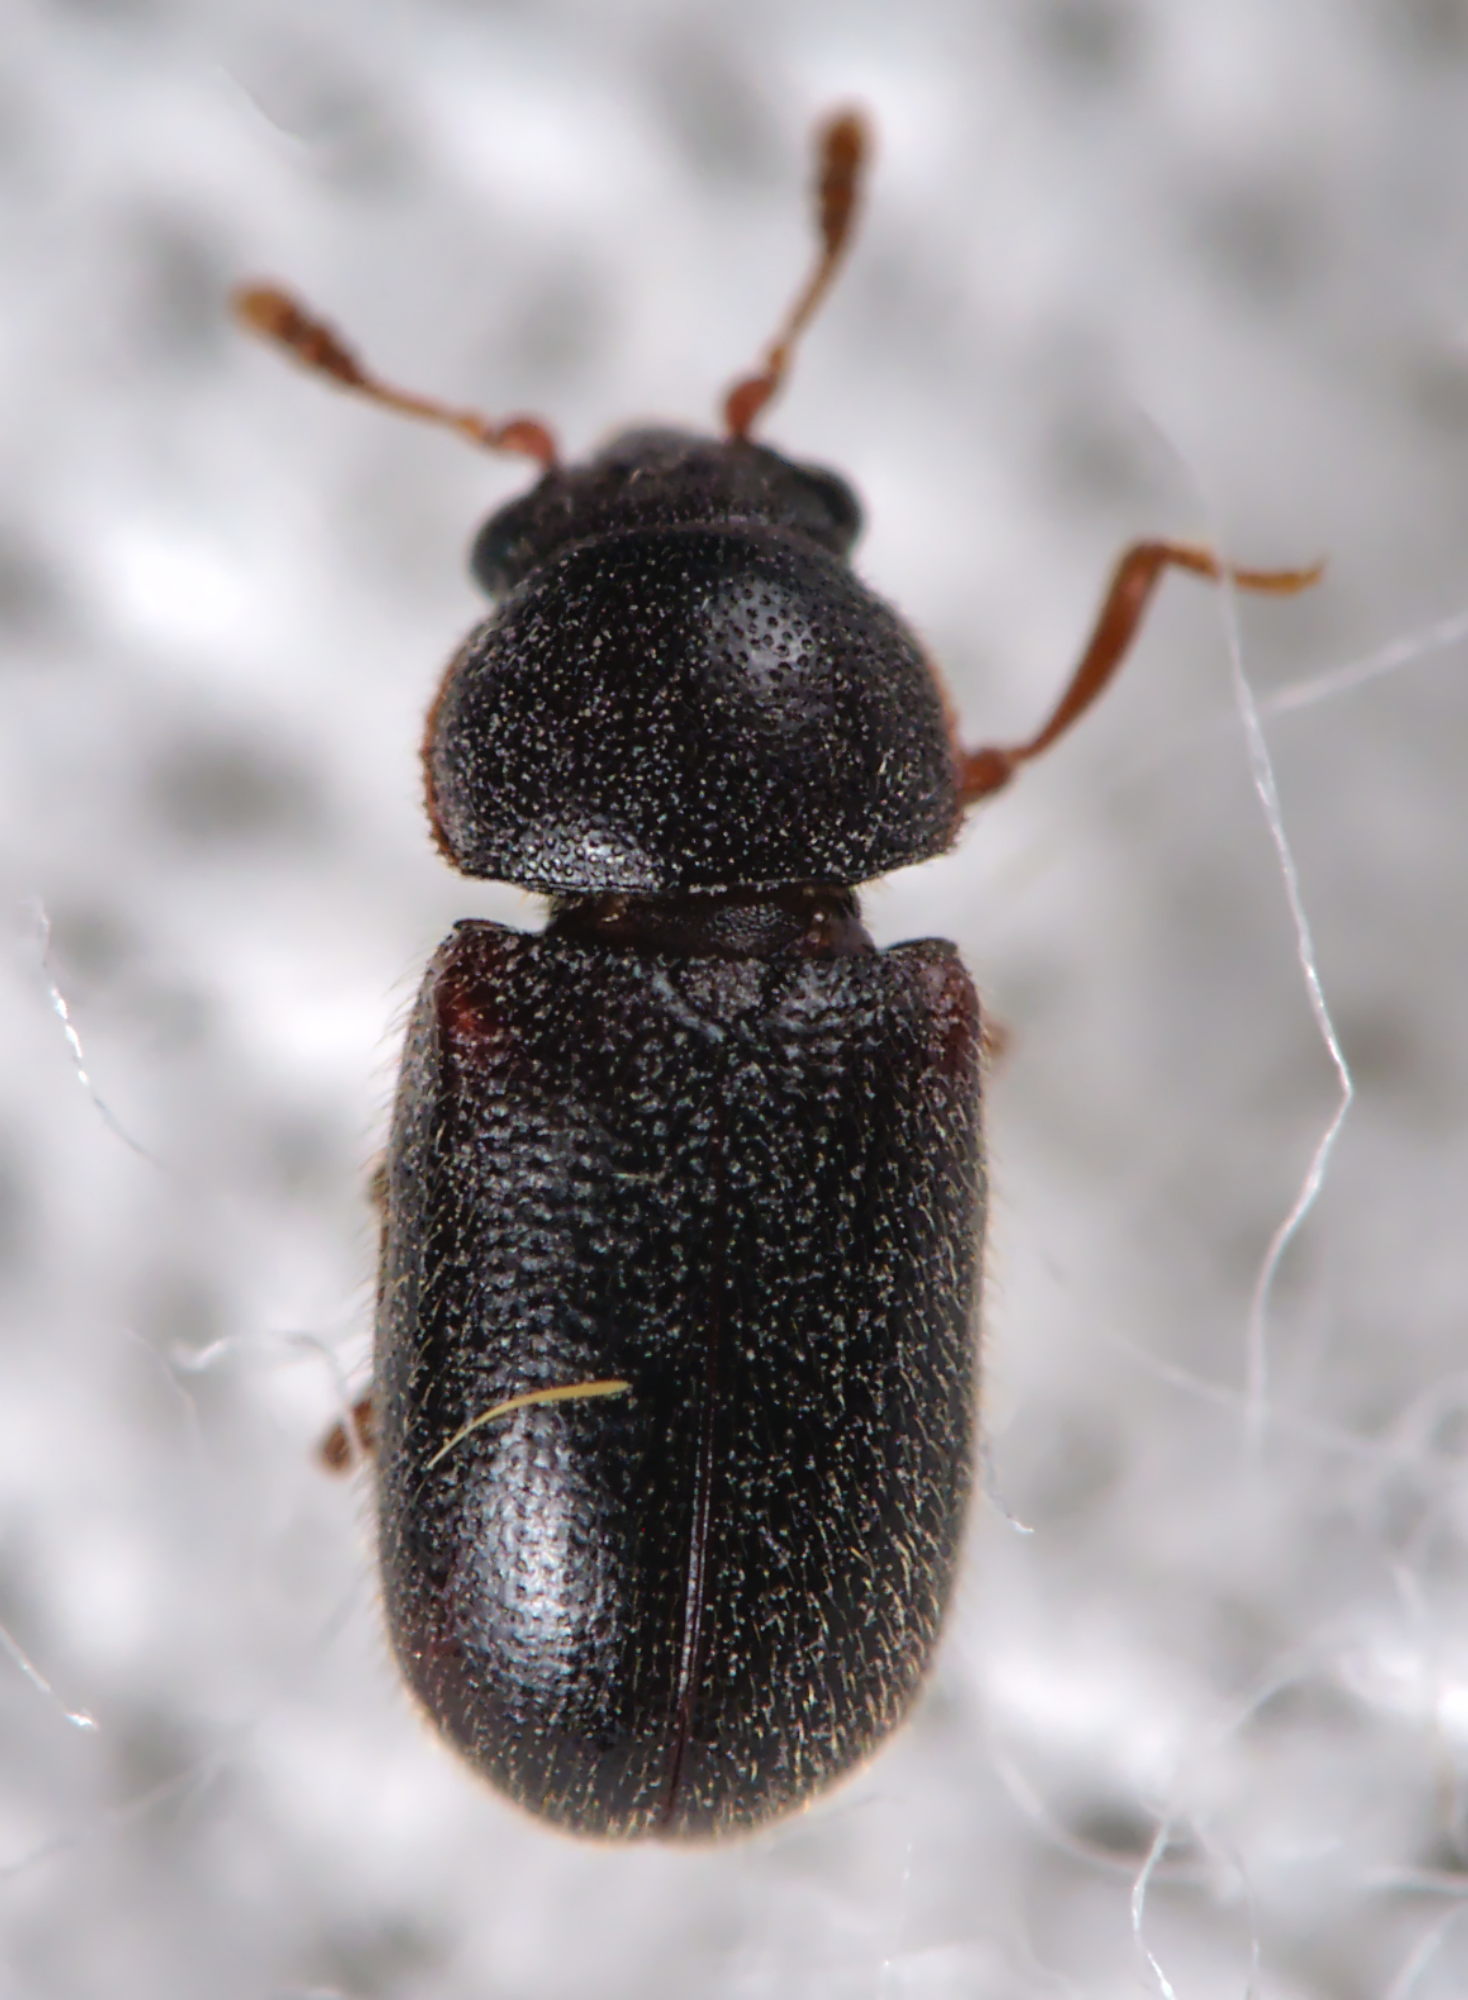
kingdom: Animalia
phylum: Arthropoda
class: Insecta
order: Coleoptera
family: Sphindidae
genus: Sphindus
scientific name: Sphindus dubius
